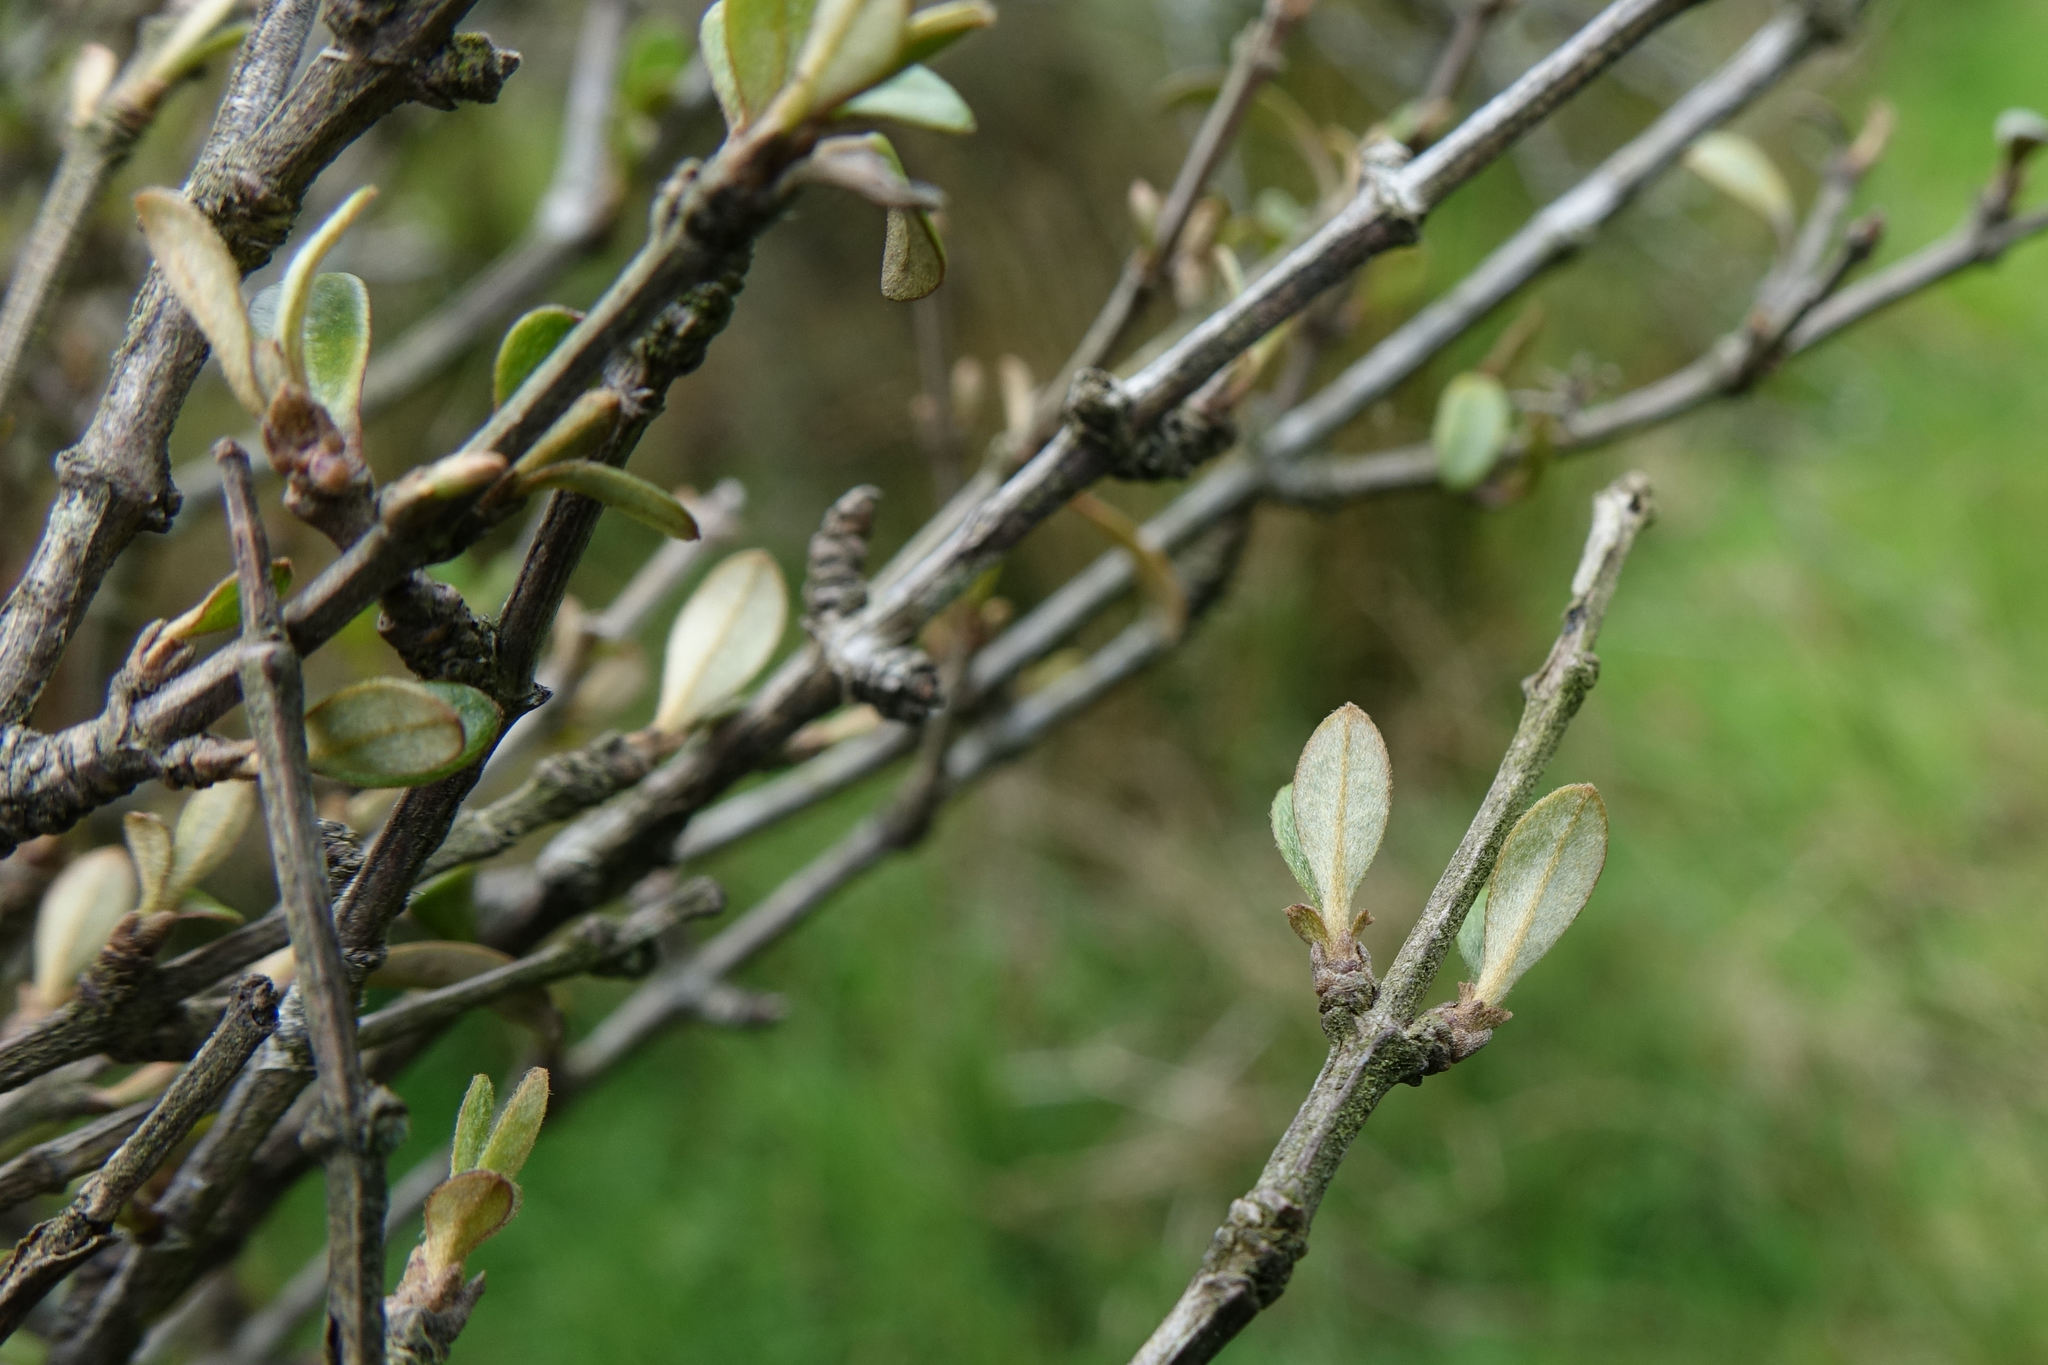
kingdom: Plantae
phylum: Tracheophyta
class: Magnoliopsida
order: Asterales
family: Asteraceae
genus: Olearia
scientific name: Olearia laxiflora
